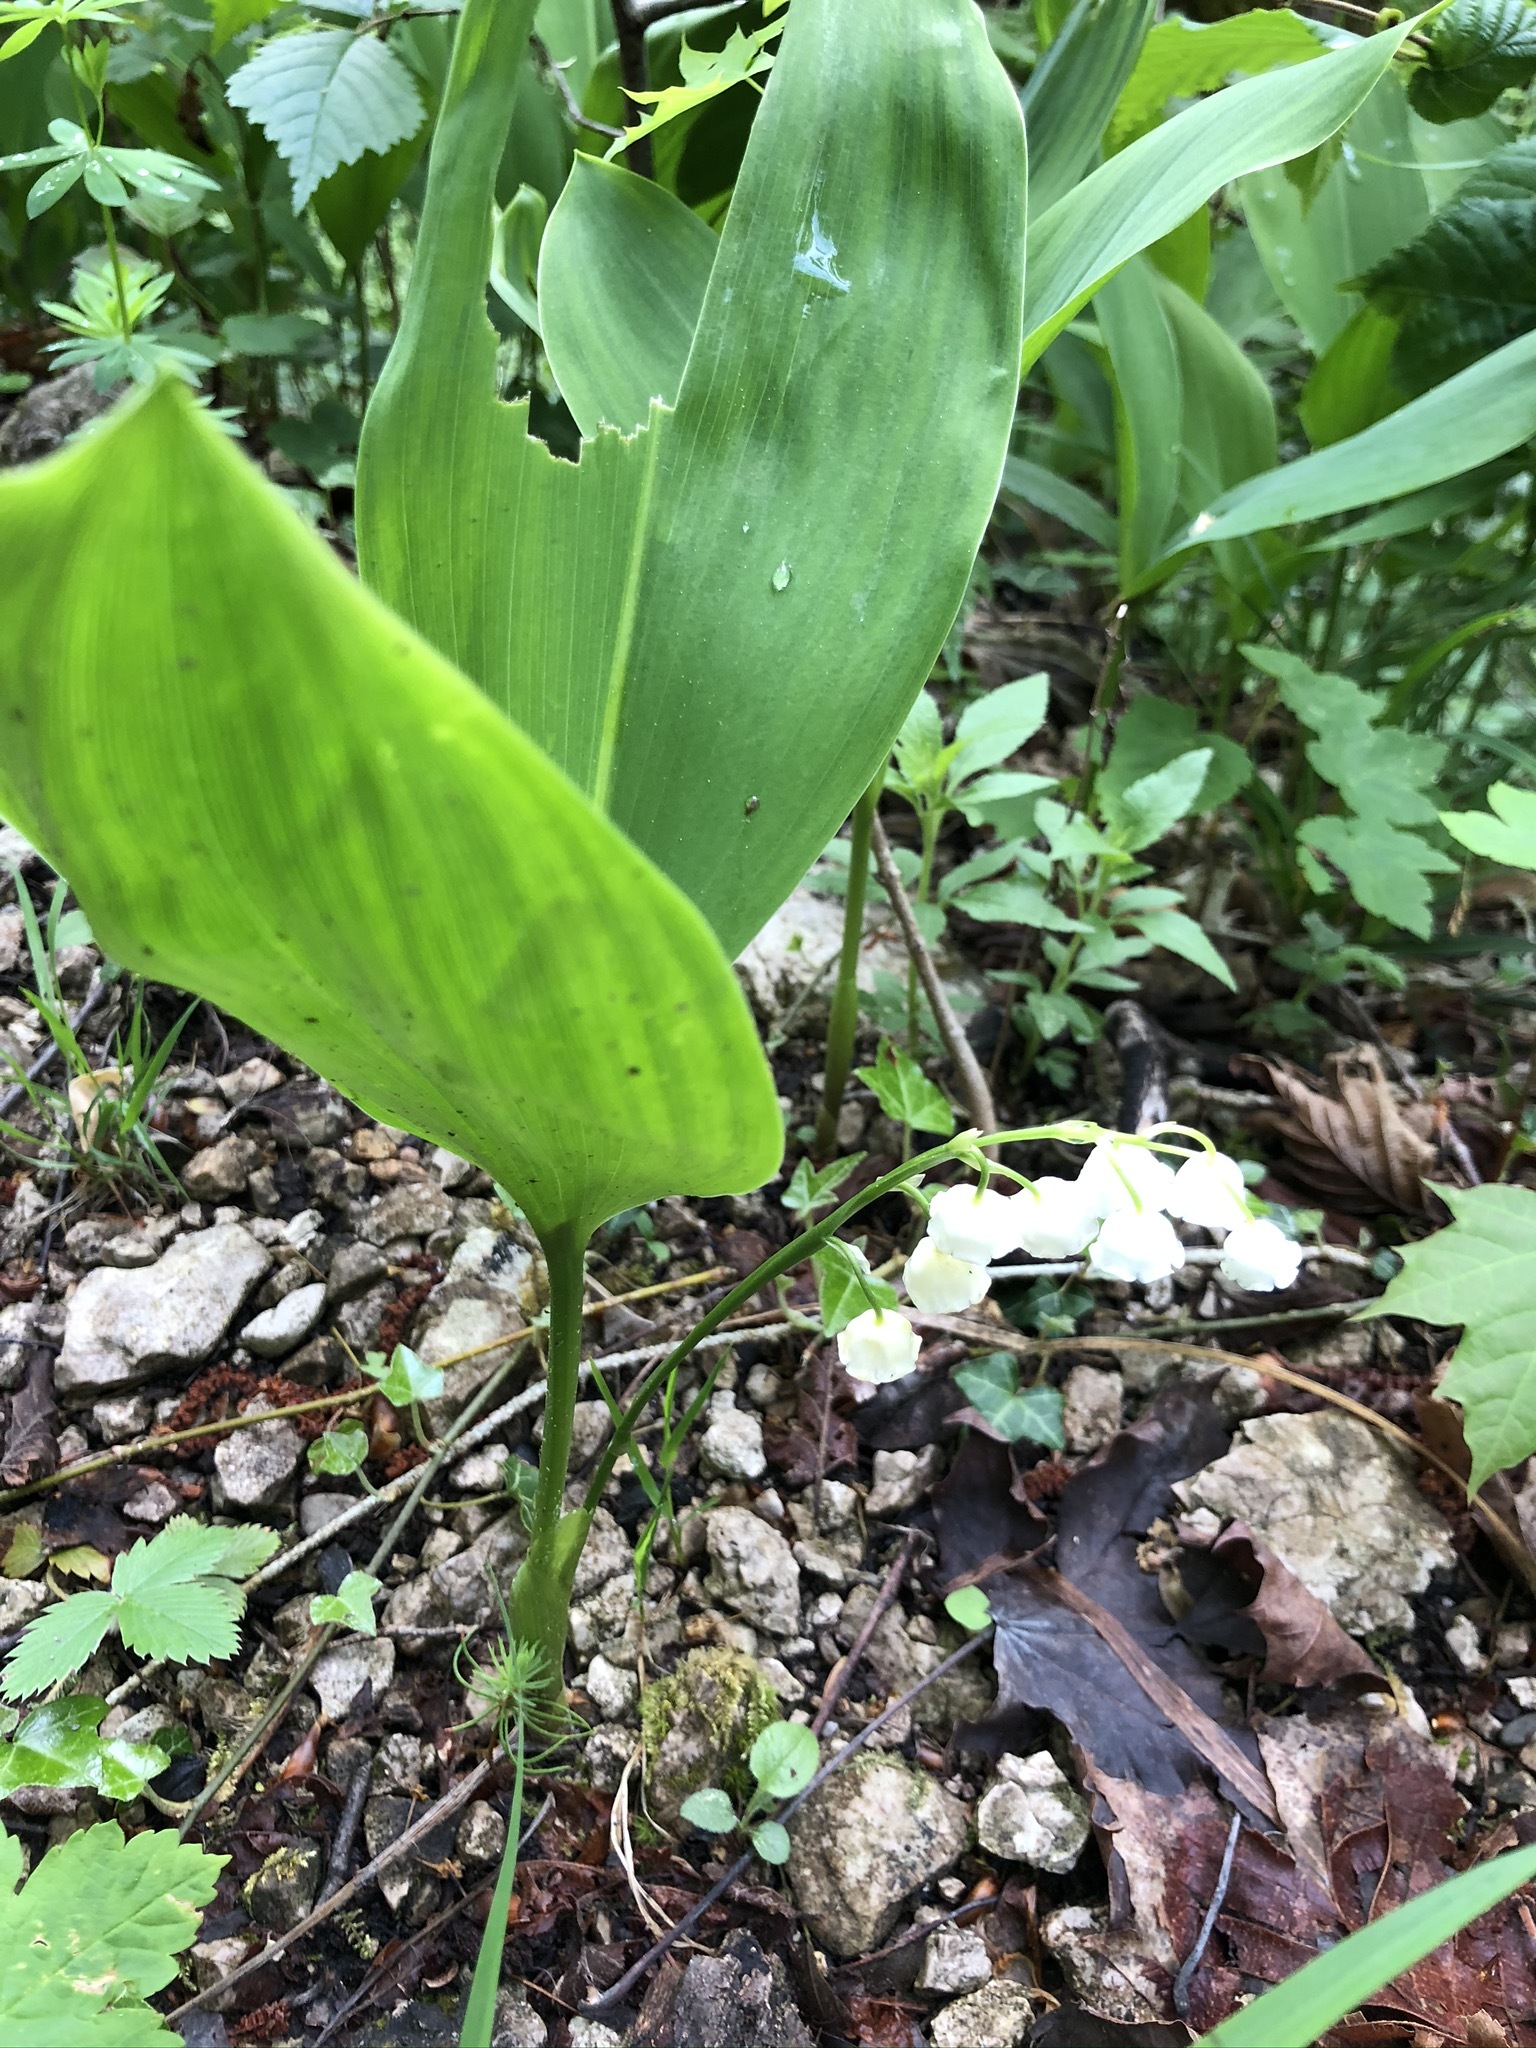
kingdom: Plantae
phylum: Tracheophyta
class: Liliopsida
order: Asparagales
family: Asparagaceae
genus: Convallaria
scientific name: Convallaria majalis
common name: Lily-of-the-valley
